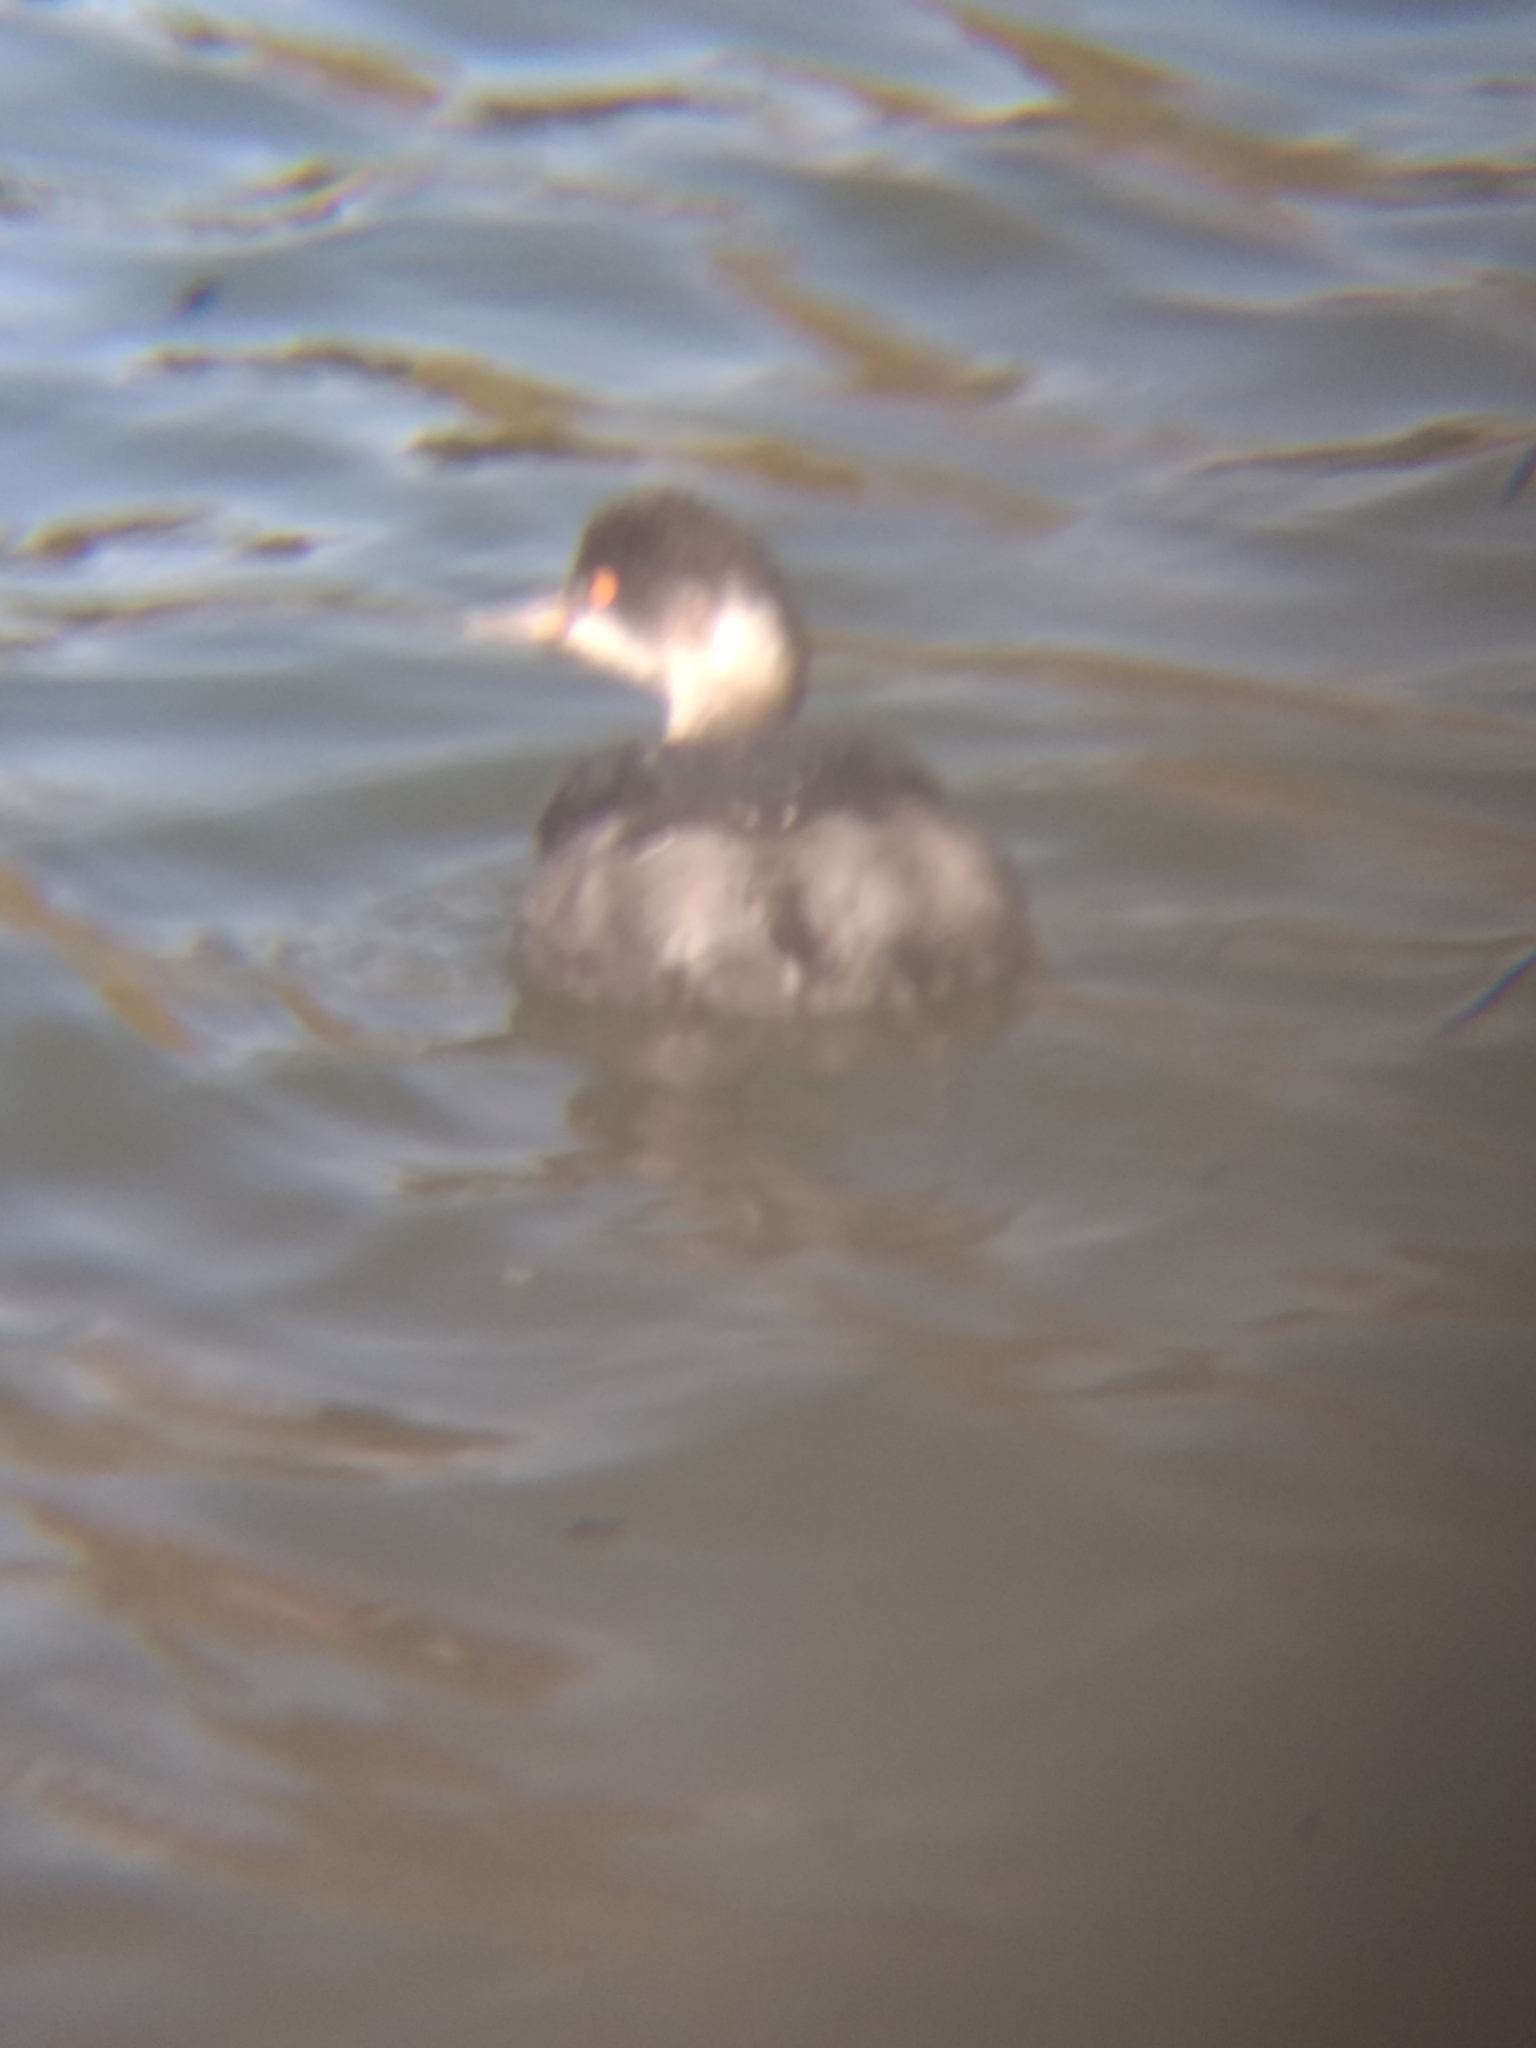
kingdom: Animalia
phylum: Chordata
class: Aves
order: Podicipediformes
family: Podicipedidae
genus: Podiceps
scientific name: Podiceps nigricollis
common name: Black-necked grebe
